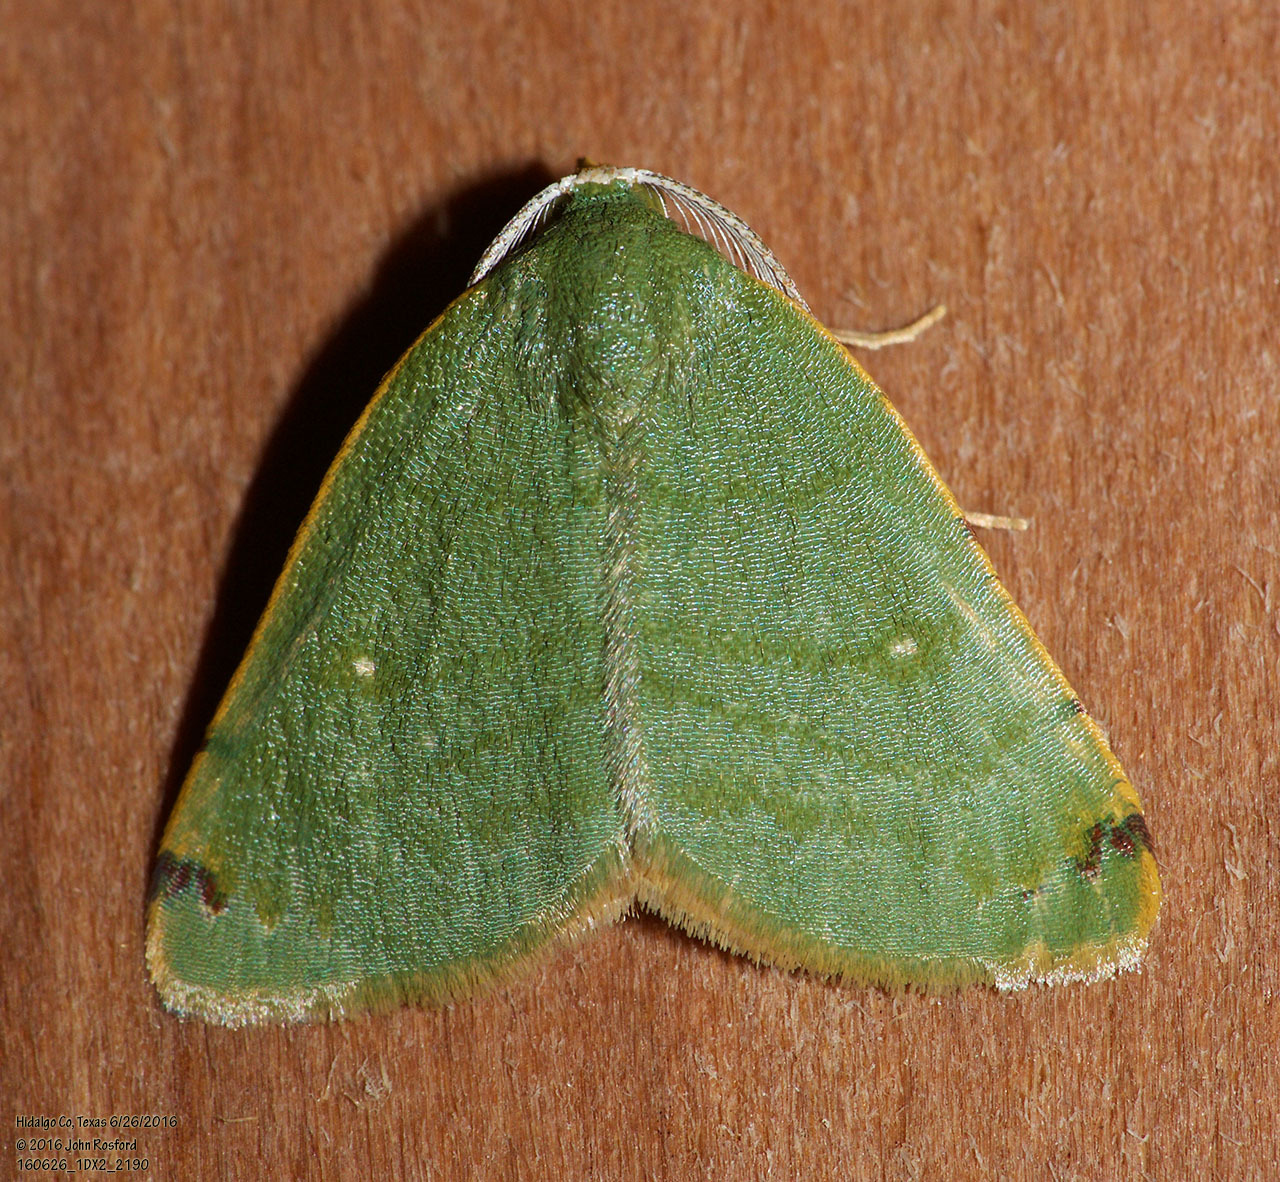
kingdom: Animalia
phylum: Arthropoda
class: Insecta
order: Lepidoptera
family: Geometridae
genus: Chloraspilates
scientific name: Chloraspilates bicoloraria
